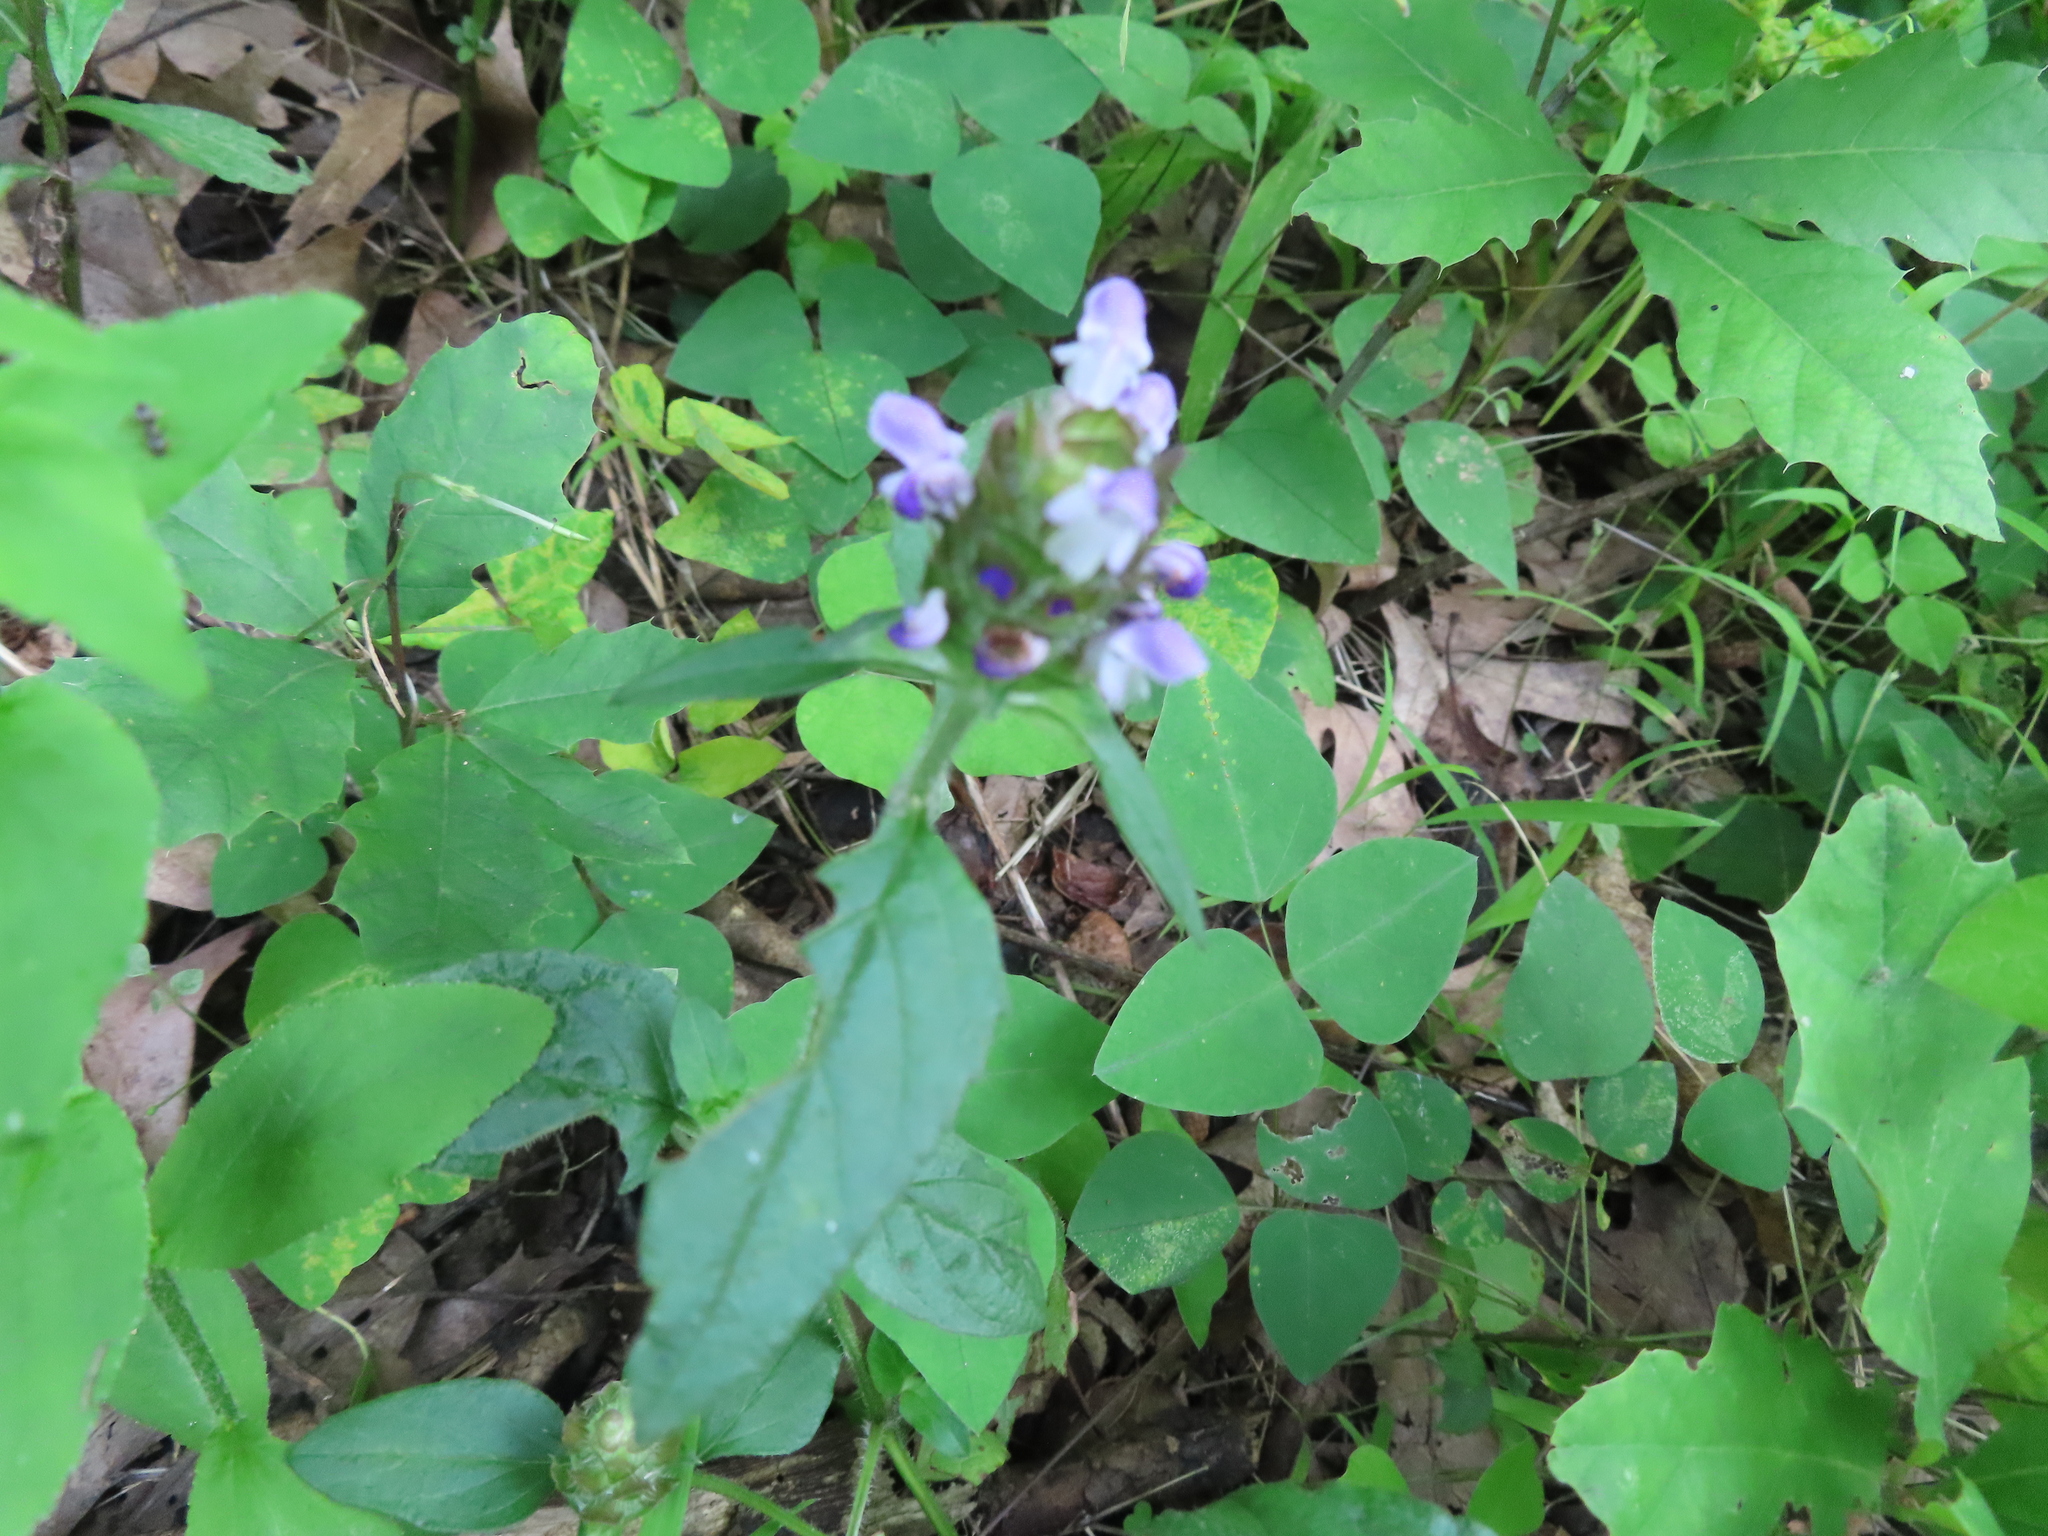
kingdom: Plantae
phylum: Tracheophyta
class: Magnoliopsida
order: Lamiales
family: Lamiaceae
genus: Prunella
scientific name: Prunella vulgaris
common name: Heal-all
